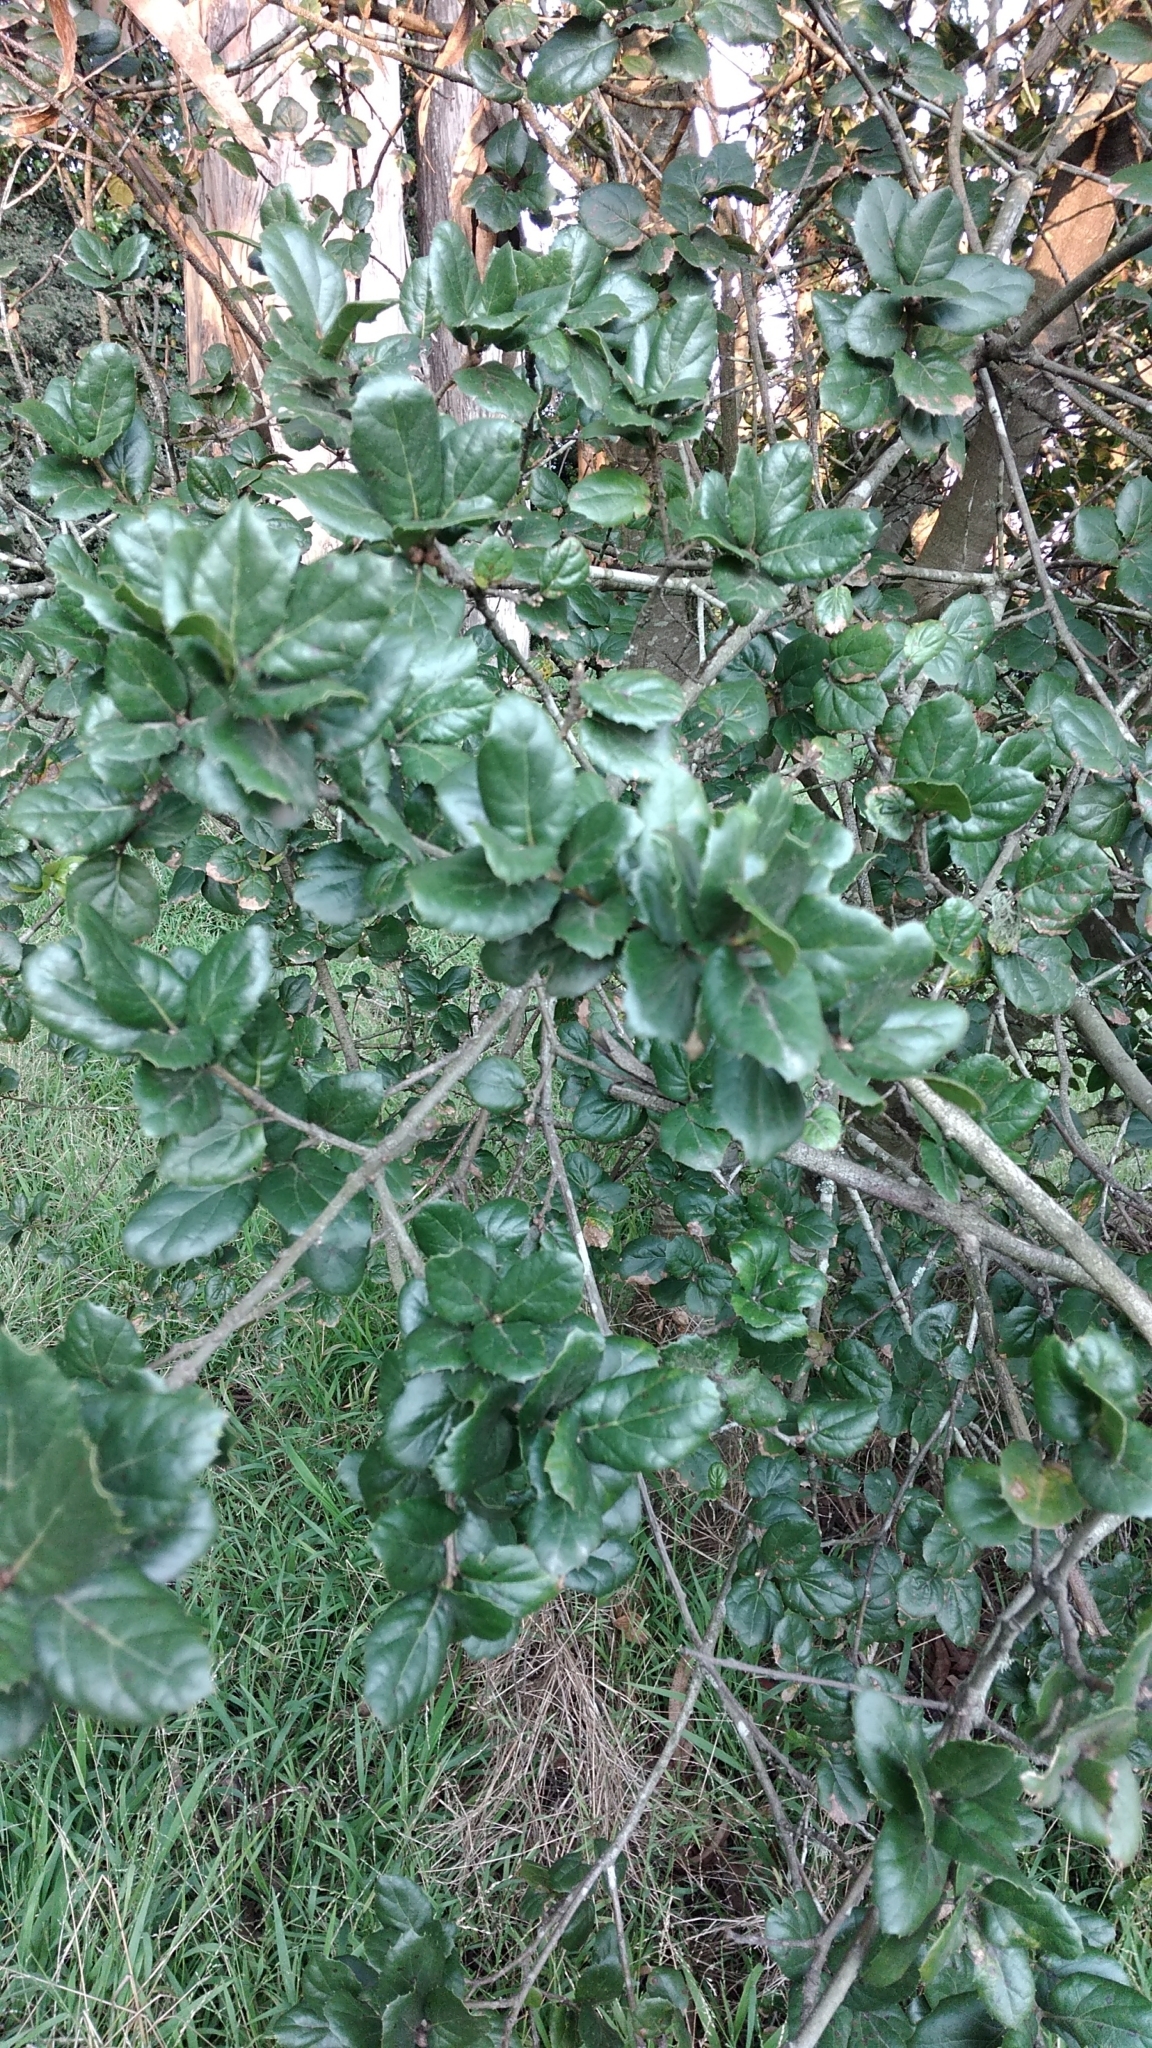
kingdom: Plantae
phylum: Tracheophyta
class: Magnoliopsida
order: Fagales
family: Fagaceae
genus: Quercus
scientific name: Quercus agrifolia
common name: California live oak
